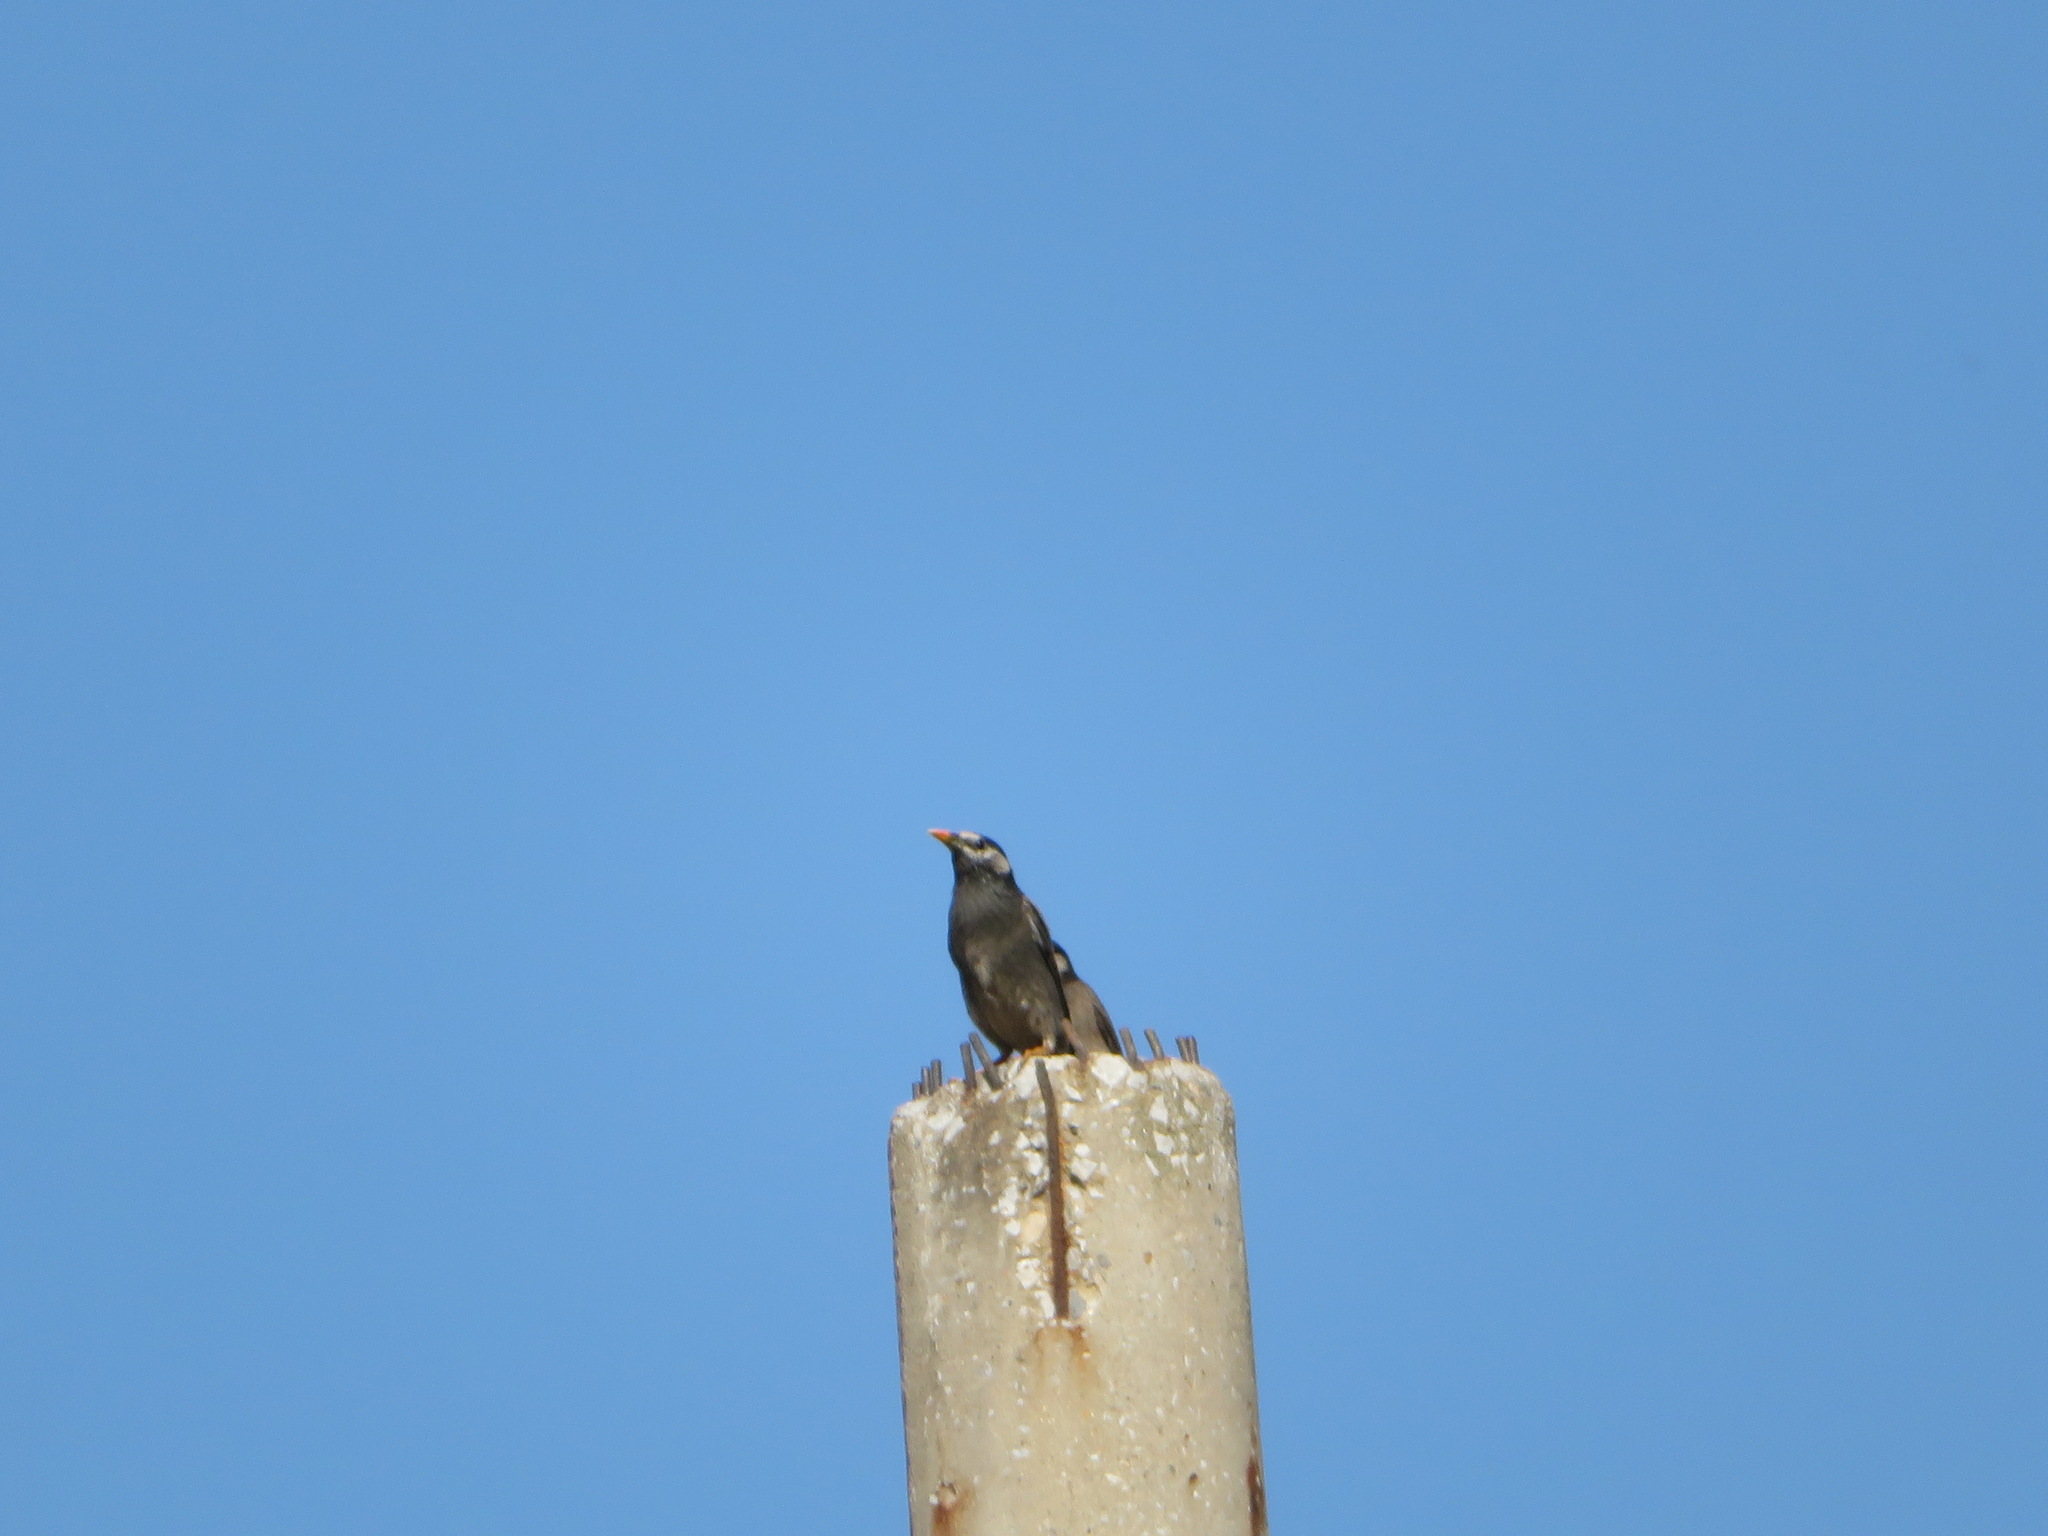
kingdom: Animalia
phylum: Chordata
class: Aves
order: Passeriformes
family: Sturnidae
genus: Spodiopsar
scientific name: Spodiopsar cineraceus
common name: White-cheeked starling
